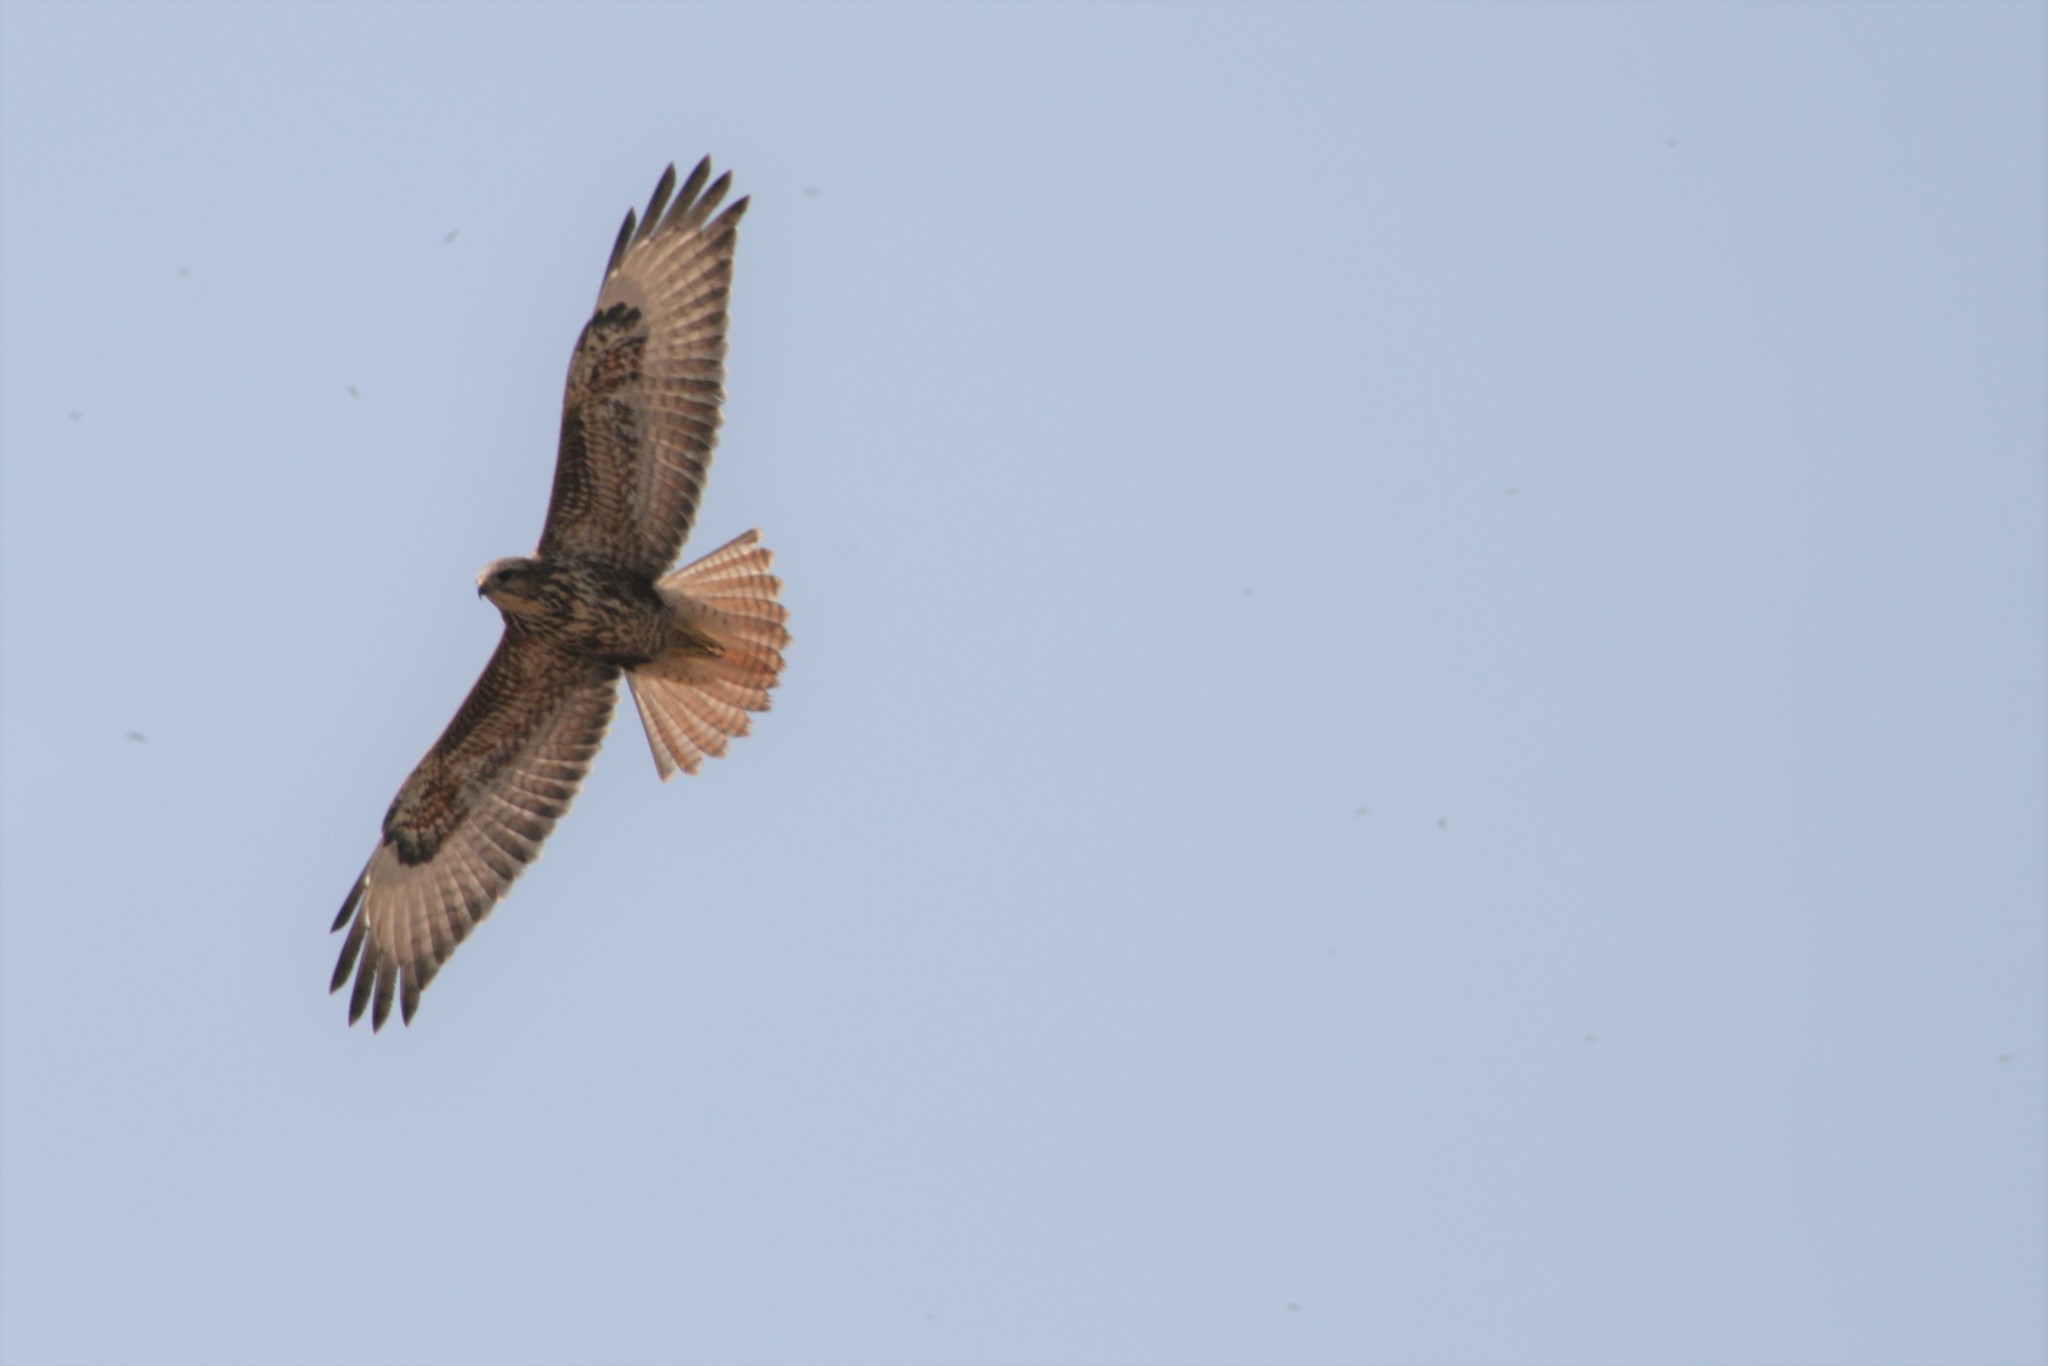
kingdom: Animalia
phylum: Chordata
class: Aves
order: Accipitriformes
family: Accipitridae
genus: Buteo
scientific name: Buteo buteo
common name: Common buzzard
